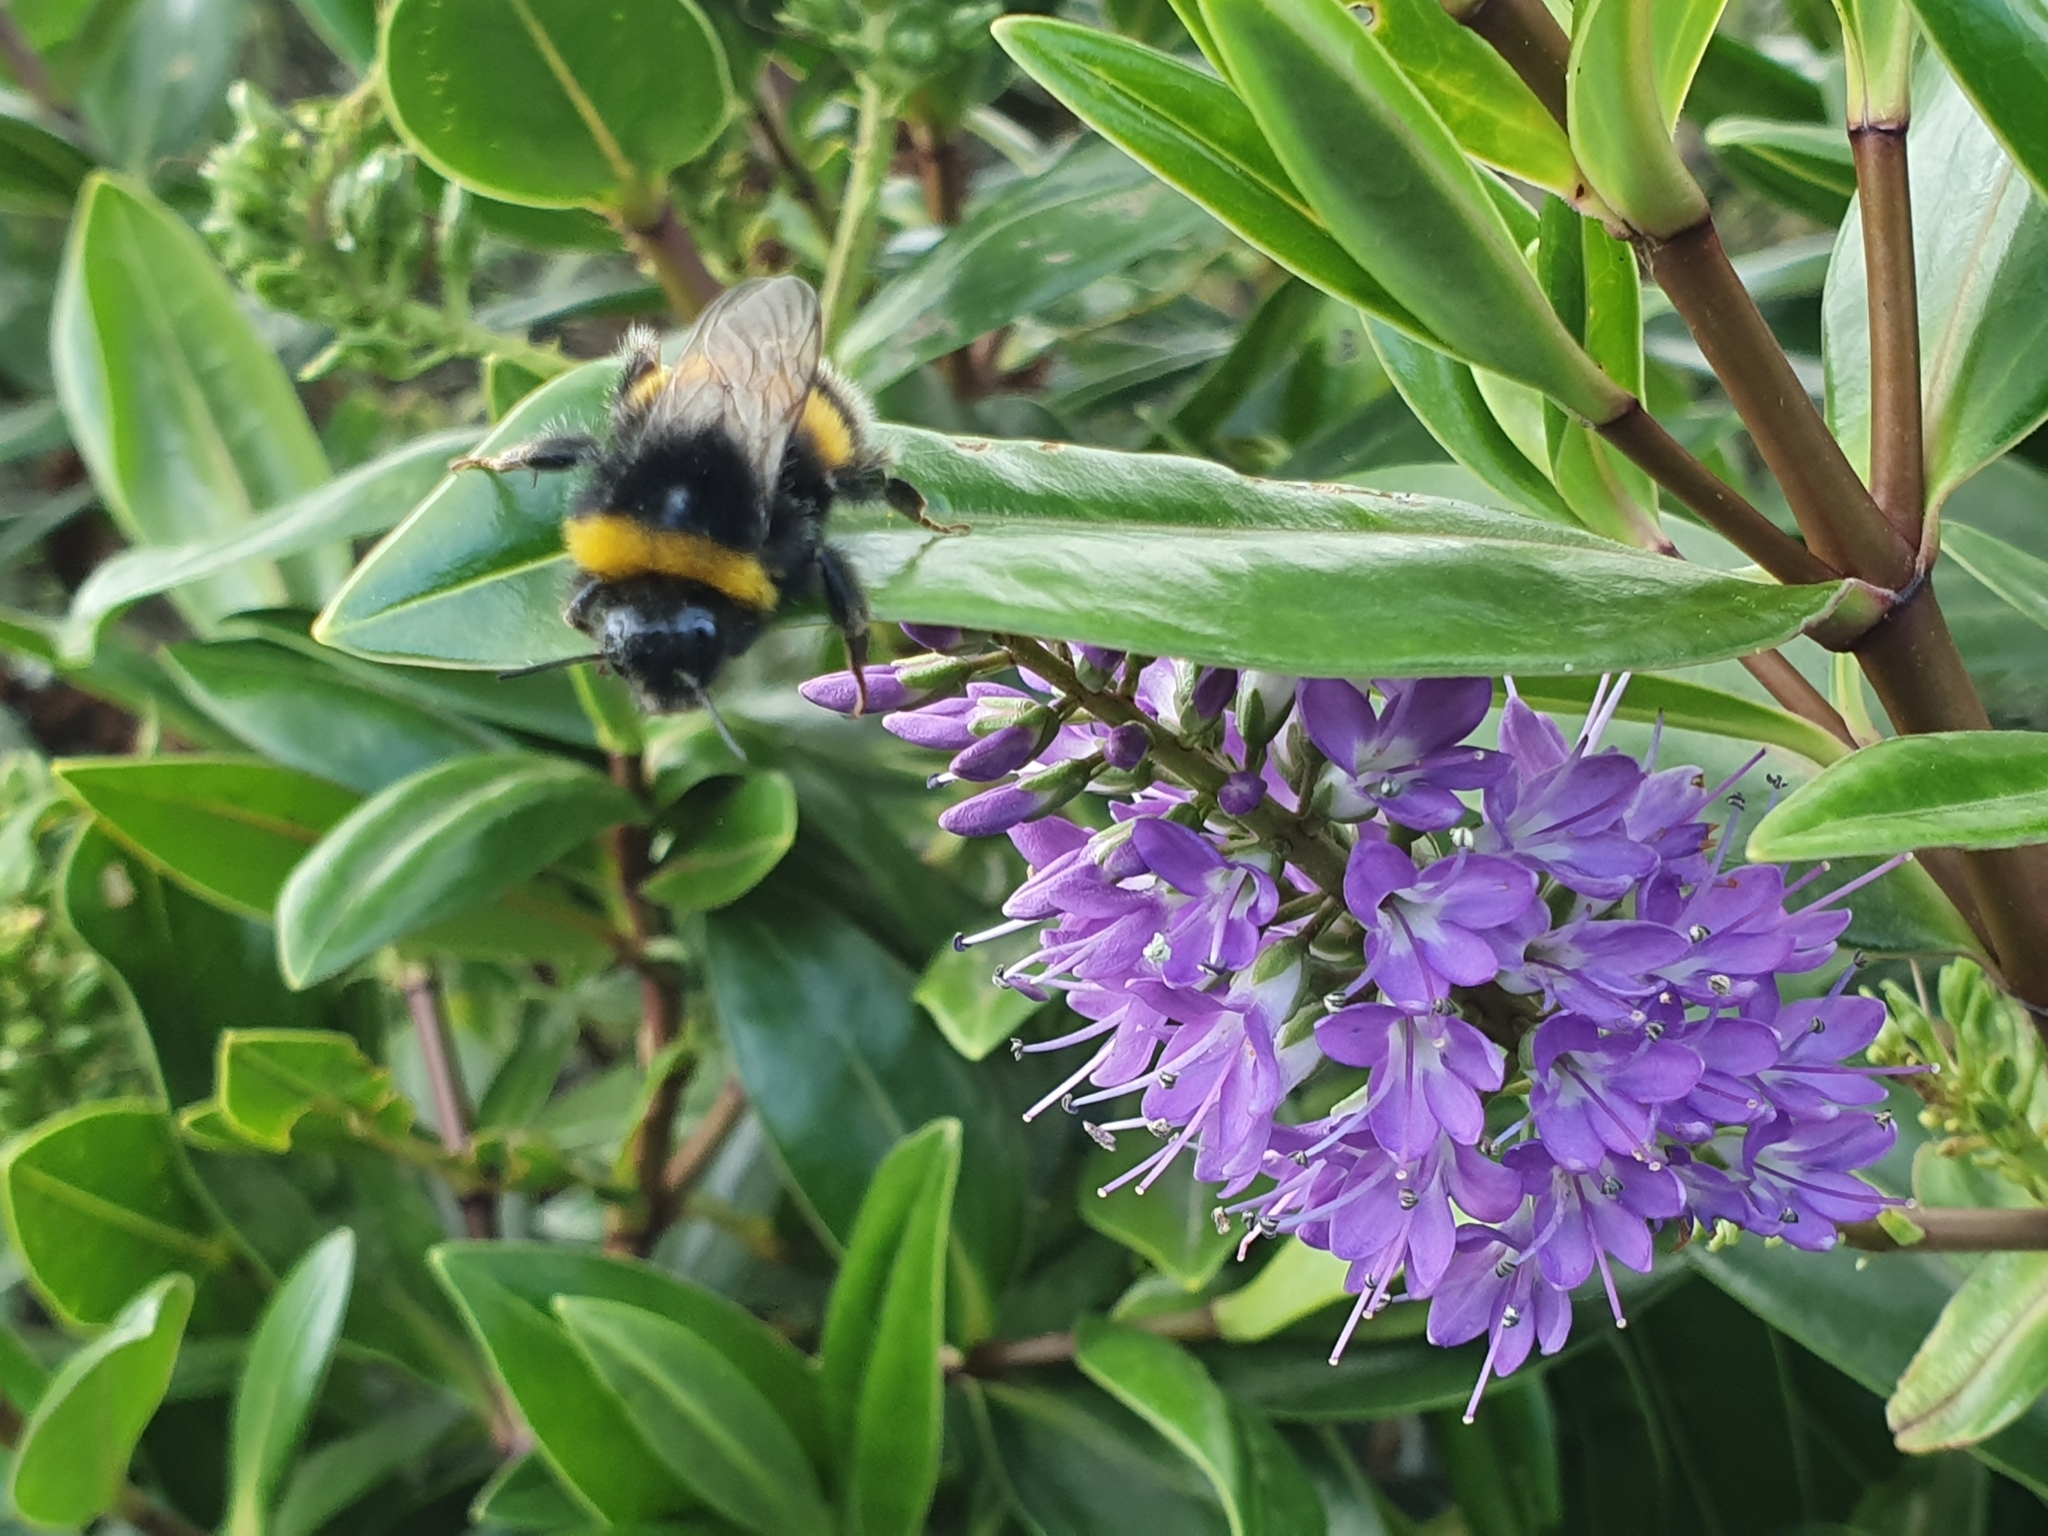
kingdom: Animalia
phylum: Arthropoda
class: Insecta
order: Hymenoptera
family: Apidae
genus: Bombus
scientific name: Bombus terrestris
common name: Buff-tailed bumblebee
